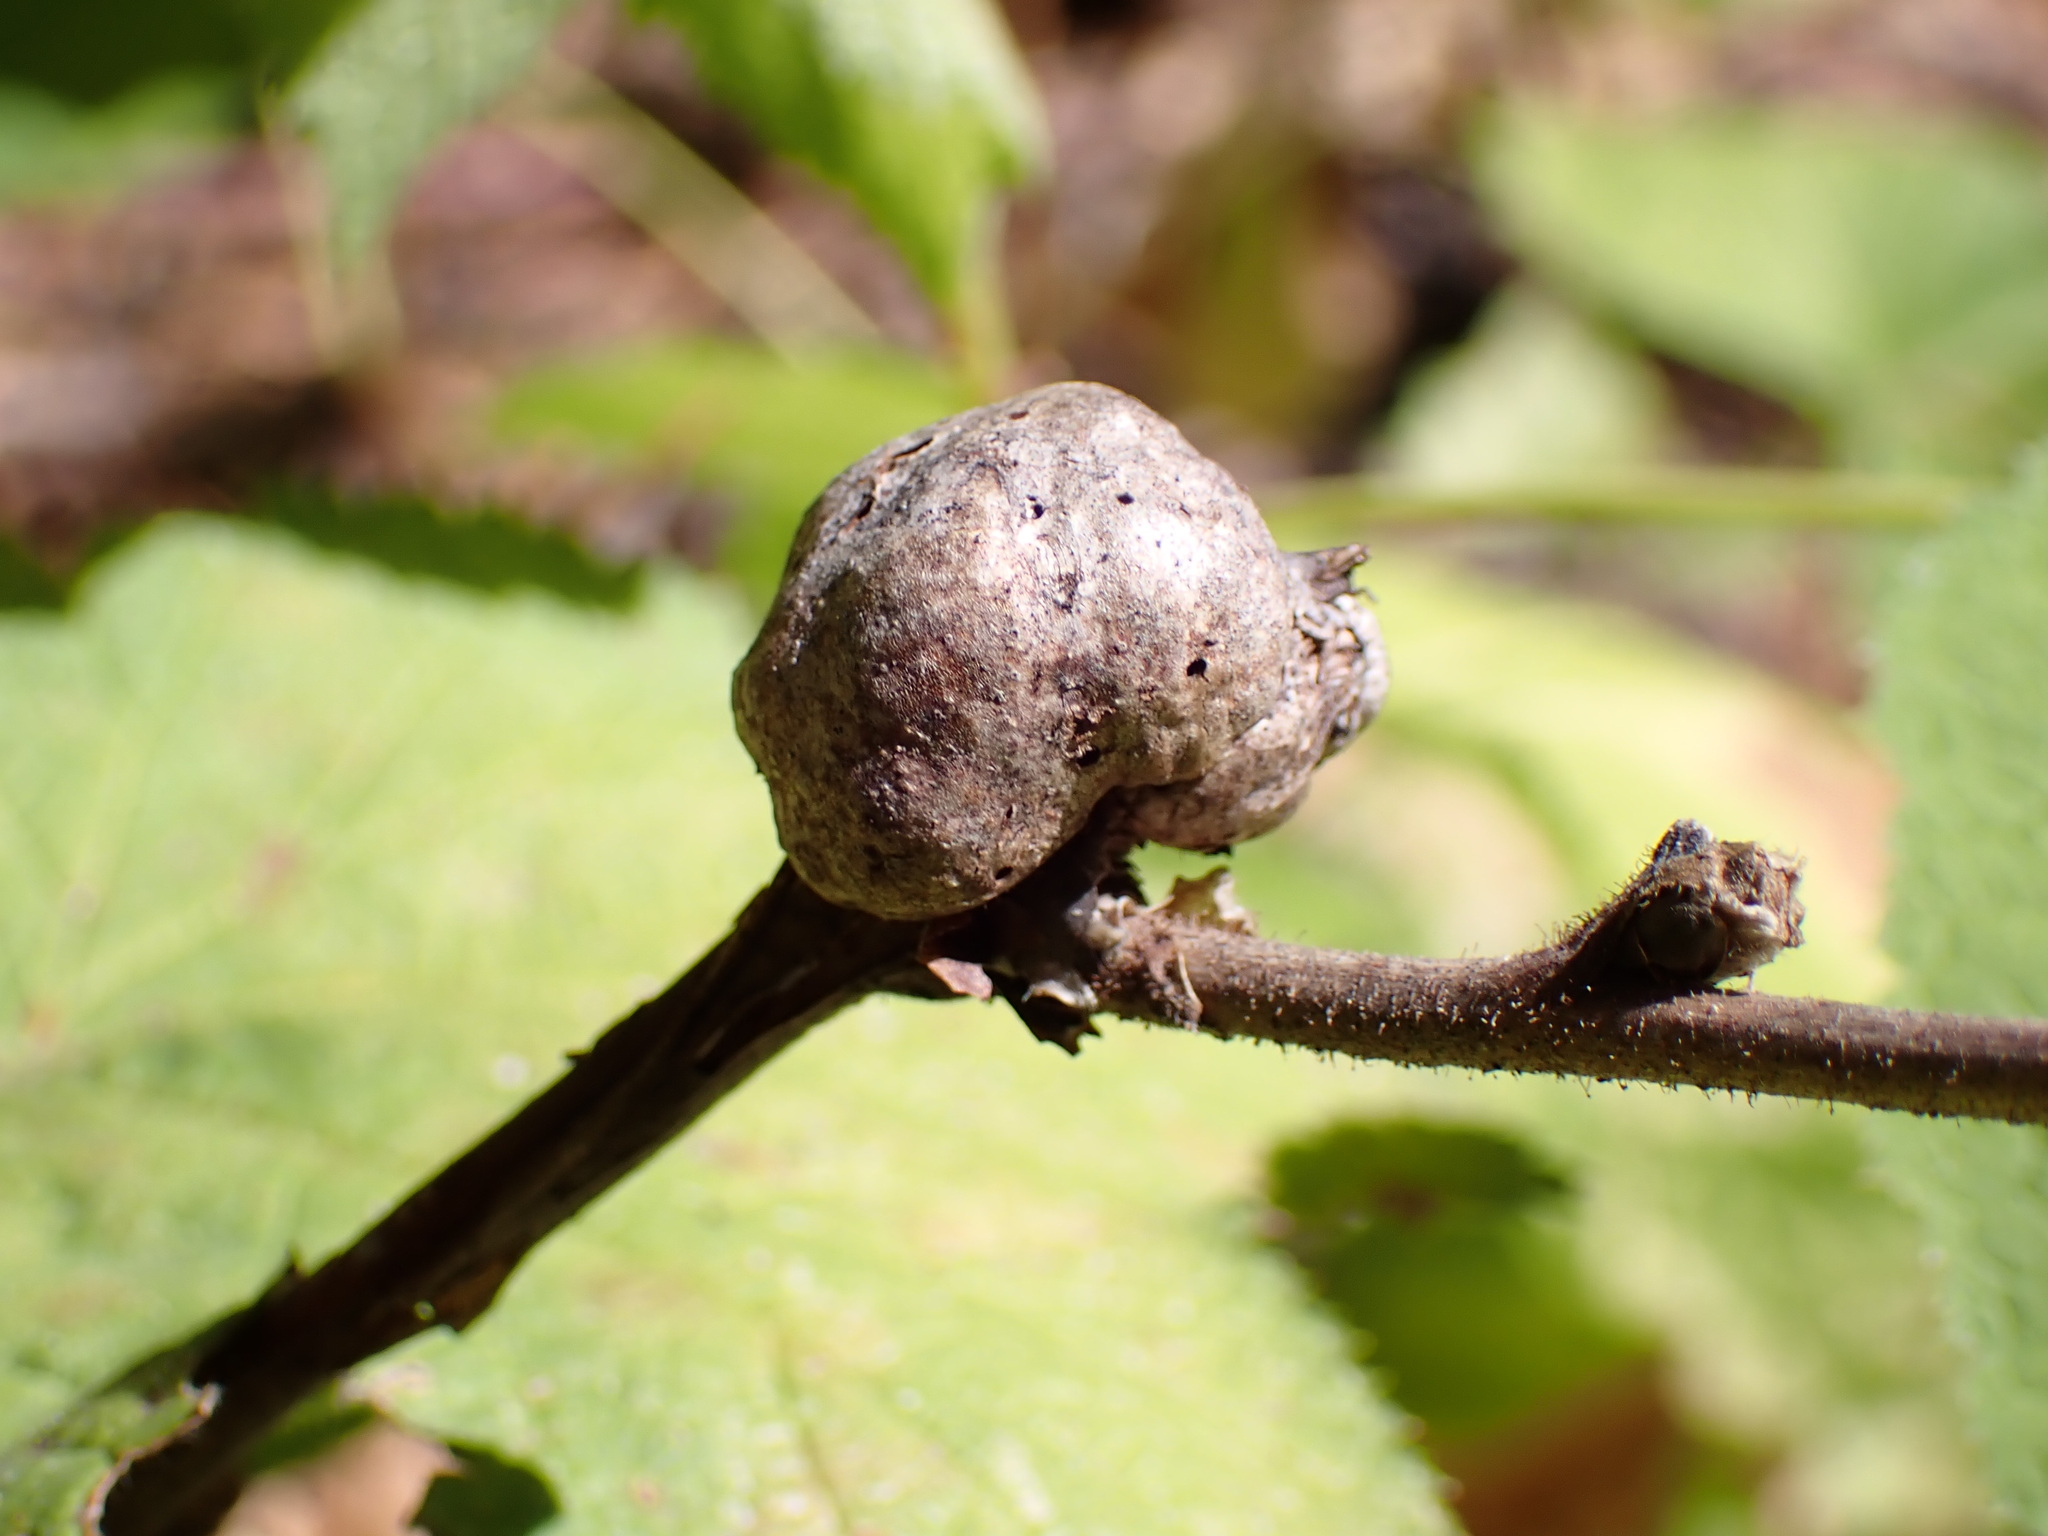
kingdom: Animalia
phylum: Arthropoda
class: Insecta
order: Hymenoptera
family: Cynipidae
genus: Diastrophus
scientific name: Diastrophus
